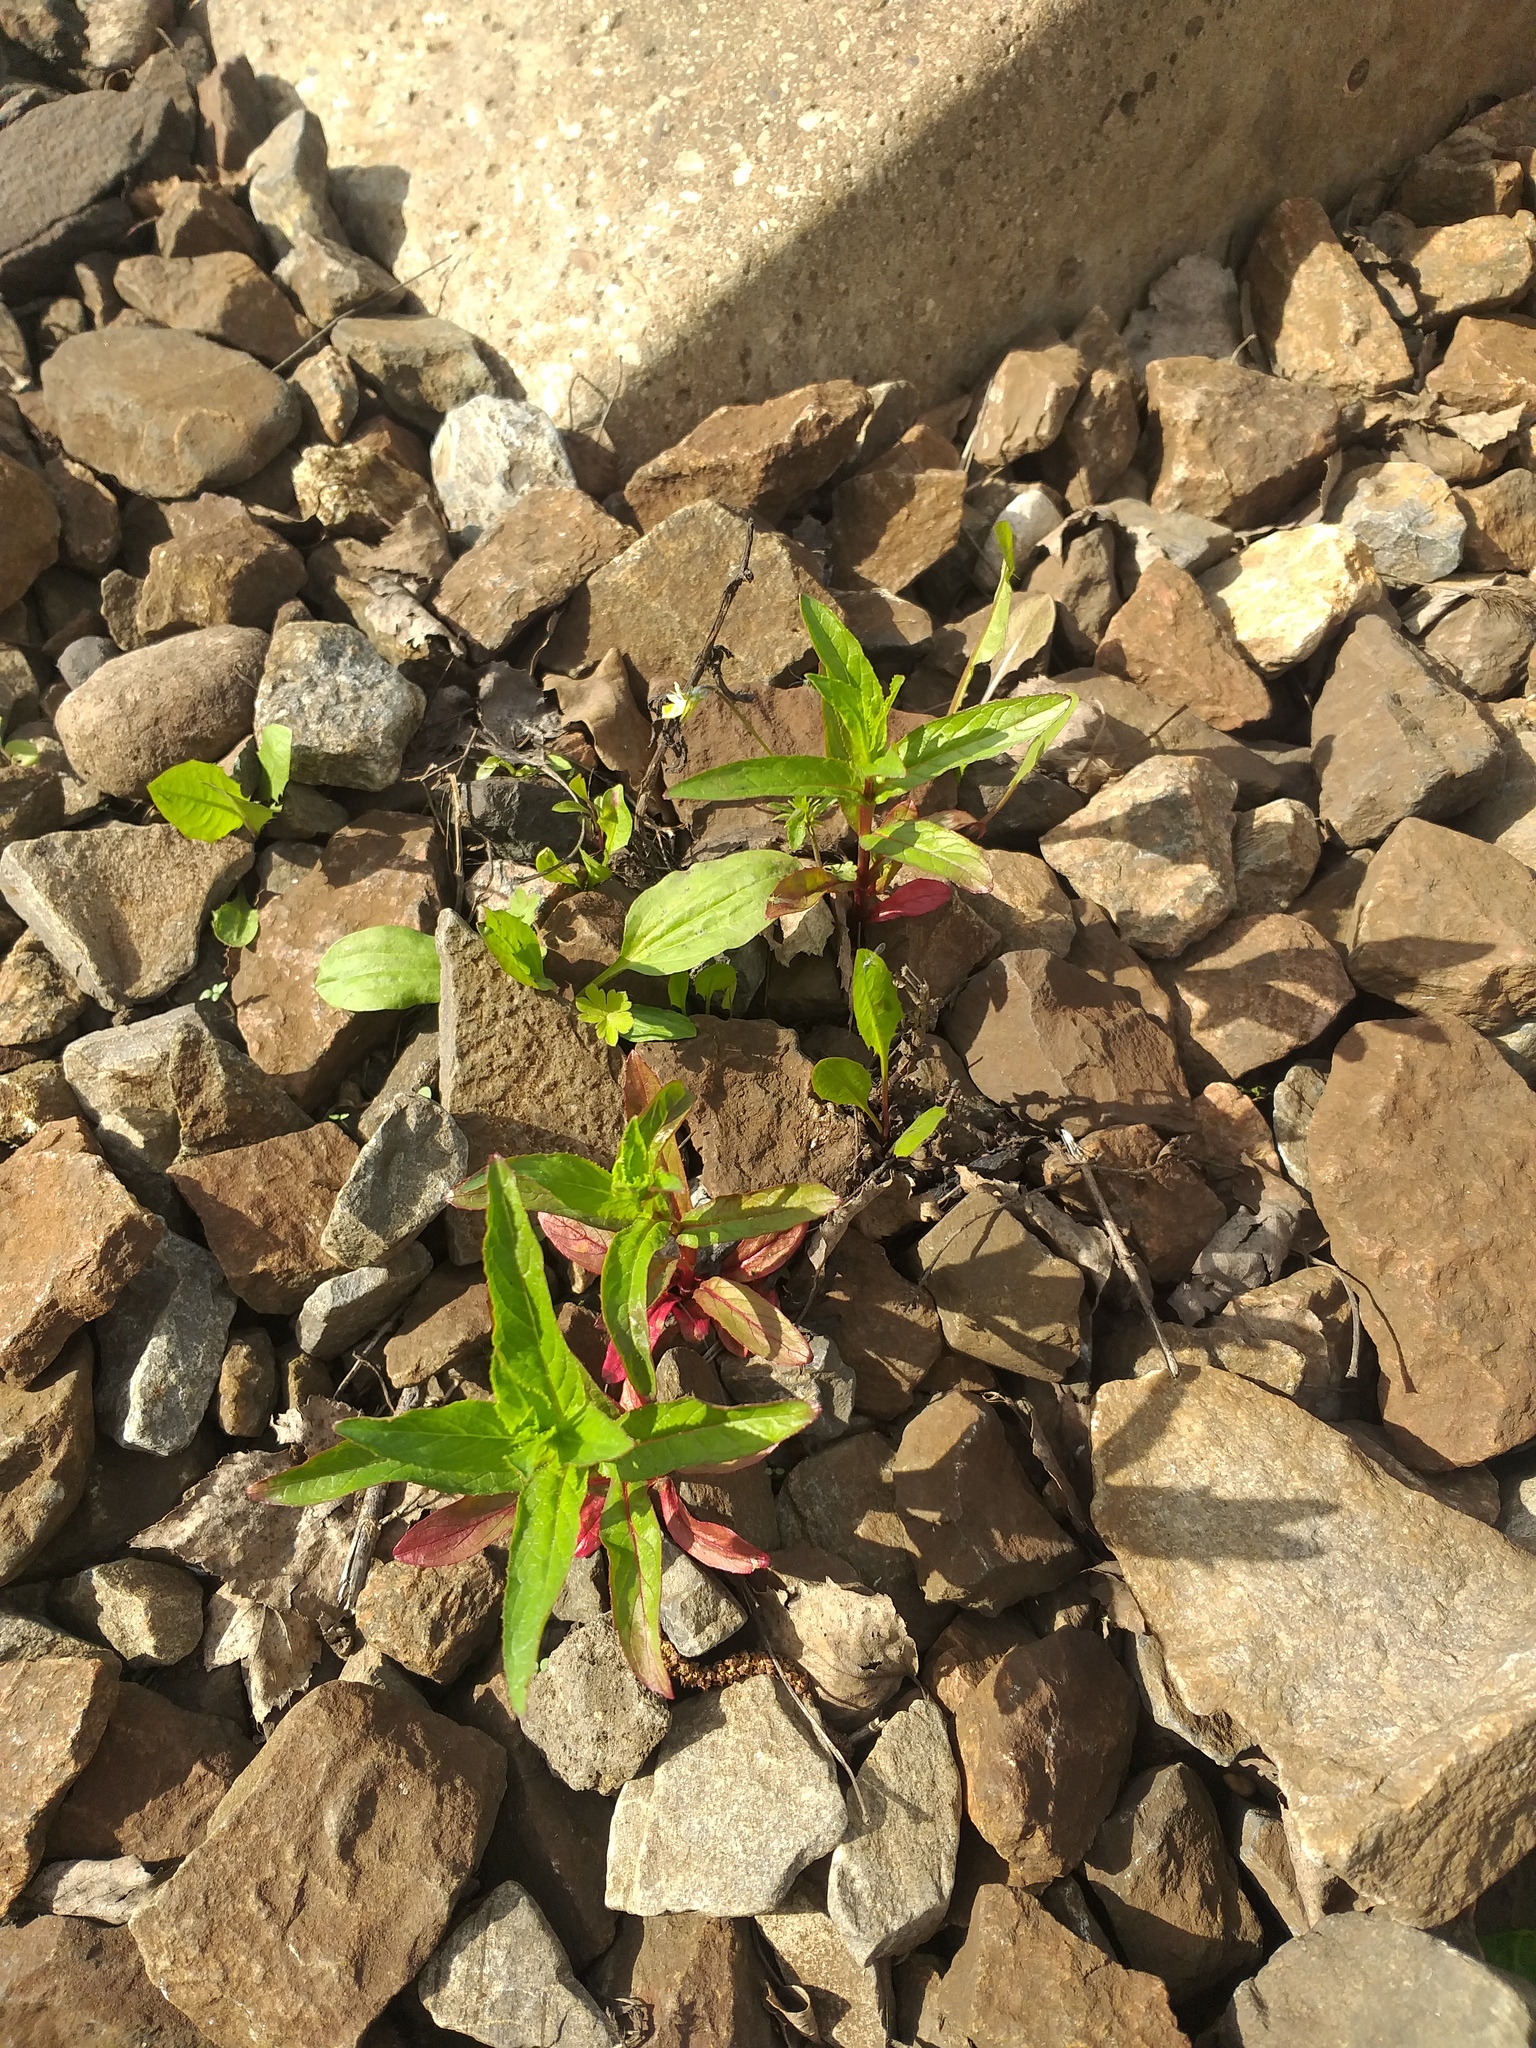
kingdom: Plantae
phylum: Tracheophyta
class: Magnoliopsida
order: Myrtales
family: Onagraceae
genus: Epilobium
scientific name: Epilobium
